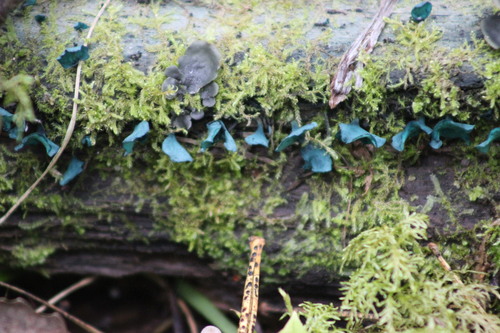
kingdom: Fungi
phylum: Ascomycota
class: Leotiomycetes
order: Helotiales
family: Chlorociboriaceae
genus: Chlorociboria
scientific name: Chlorociboria aeruginascens
